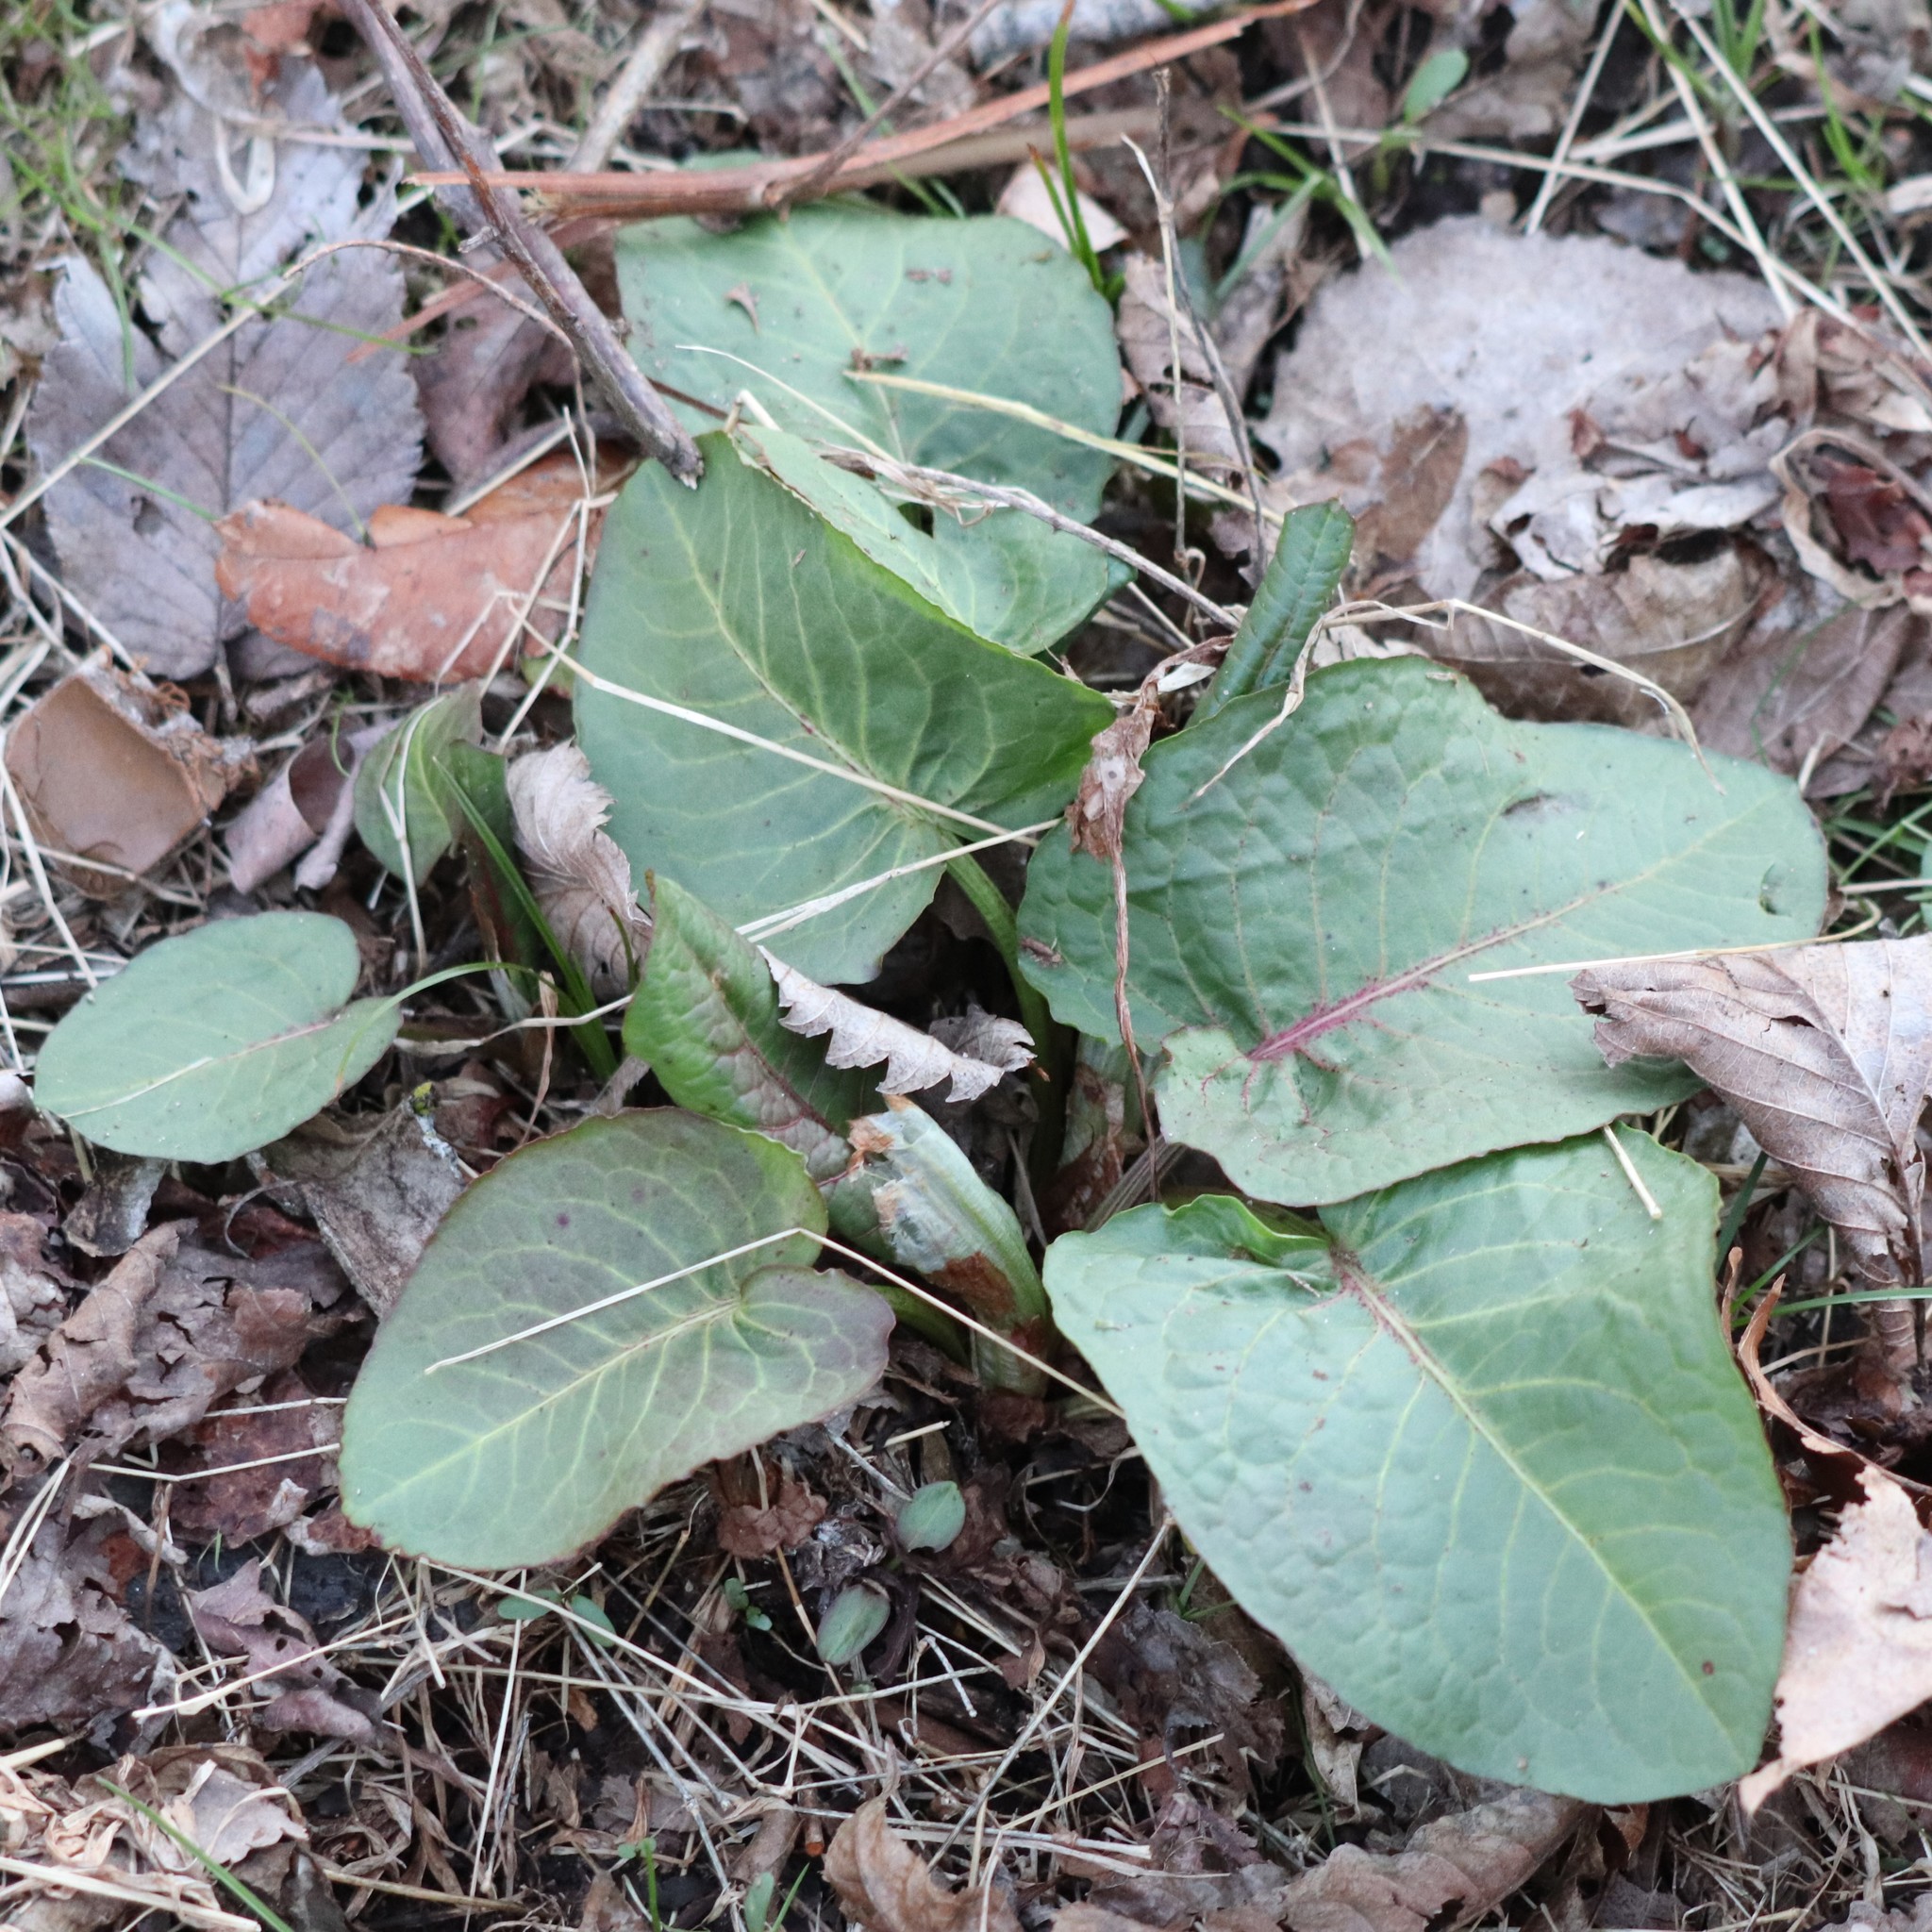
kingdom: Plantae
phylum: Tracheophyta
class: Magnoliopsida
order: Caryophyllales
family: Polygonaceae
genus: Rumex
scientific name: Rumex obtusifolius
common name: Bitter dock
